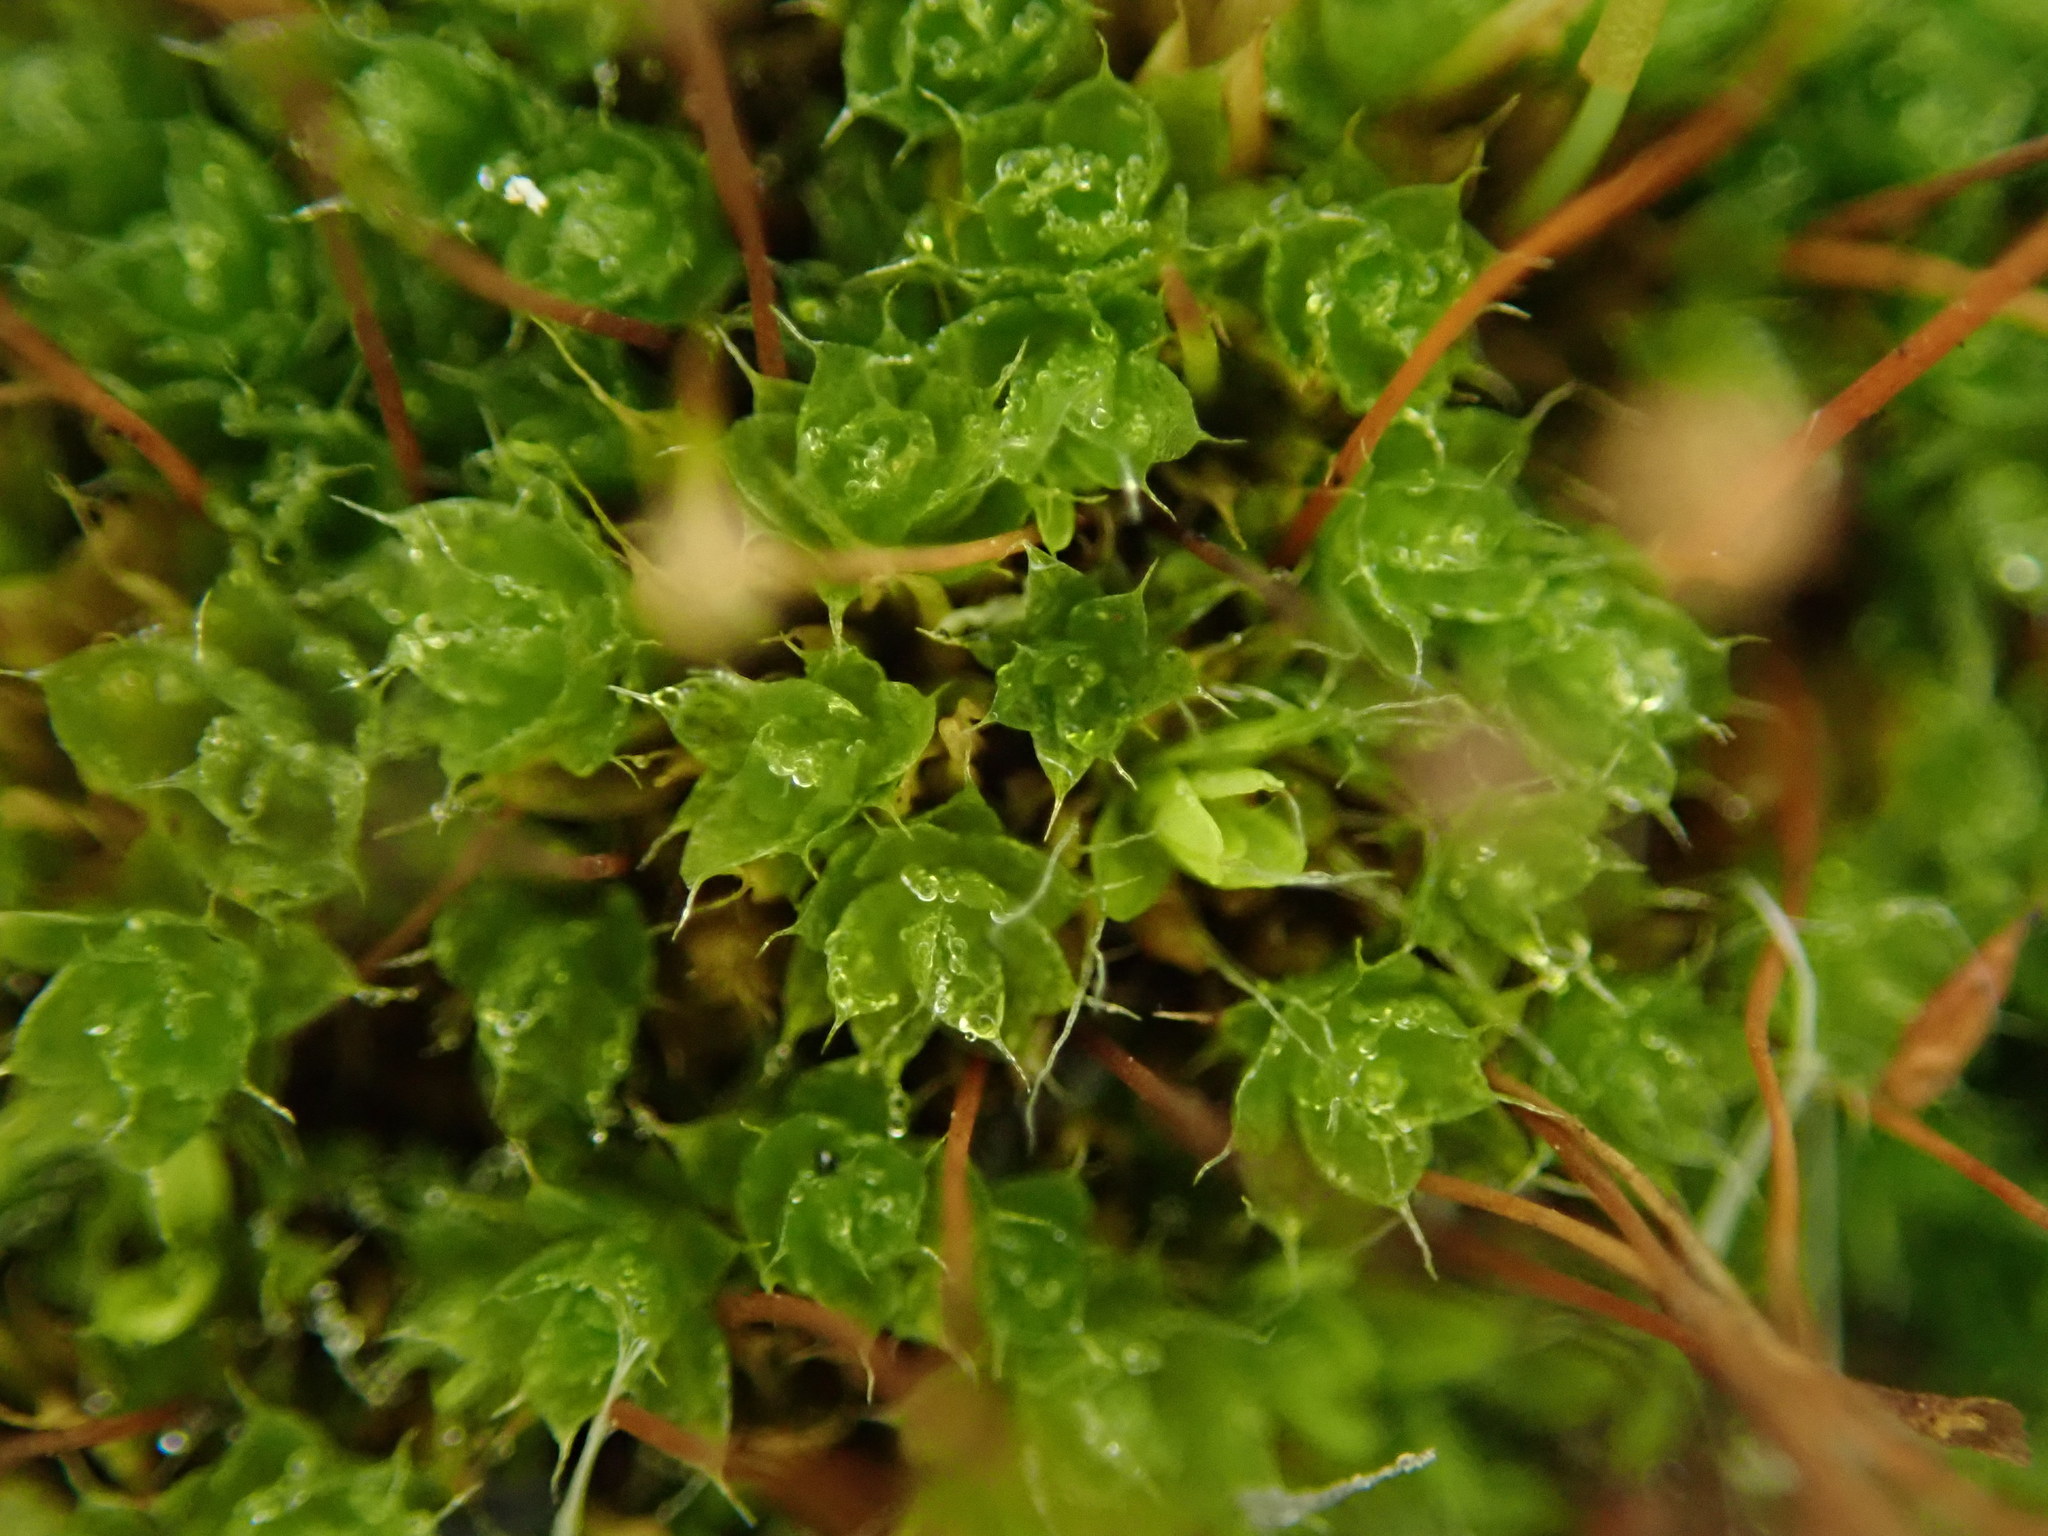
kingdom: Plantae
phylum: Bryophyta
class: Bryopsida
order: Bryales
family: Bryaceae
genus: Rosulabryum
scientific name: Rosulabryum capillare
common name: Capillary thread-moss
